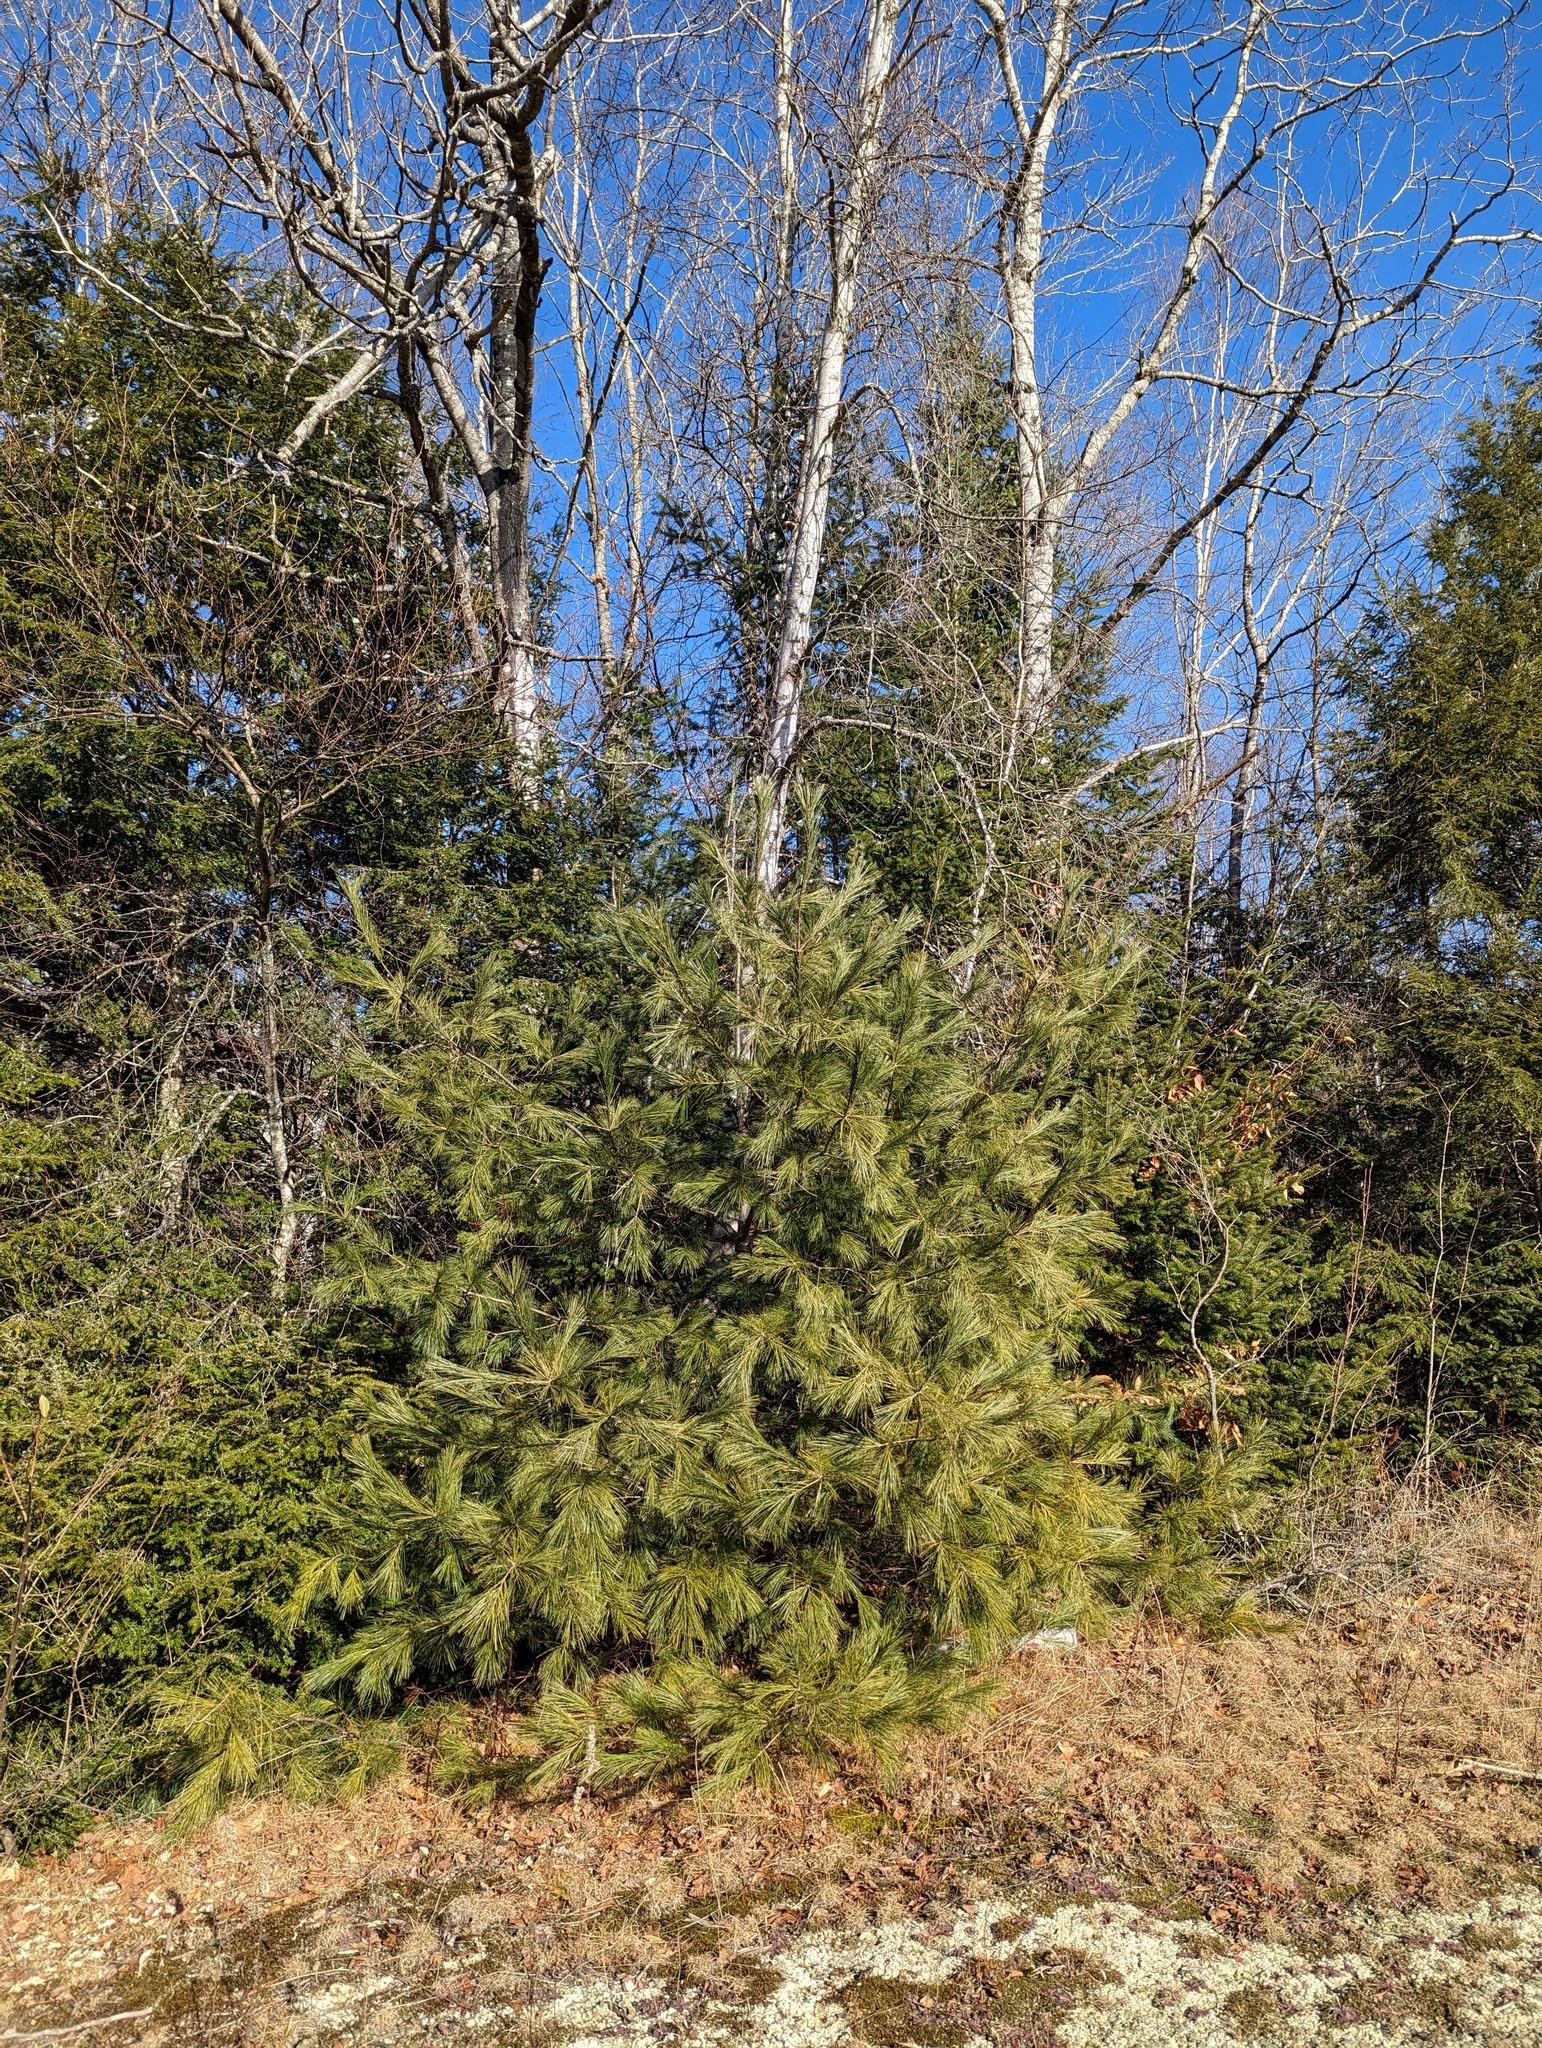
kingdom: Plantae
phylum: Tracheophyta
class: Pinopsida
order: Pinales
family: Pinaceae
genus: Pinus
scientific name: Pinus strobus
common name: Weymouth pine
